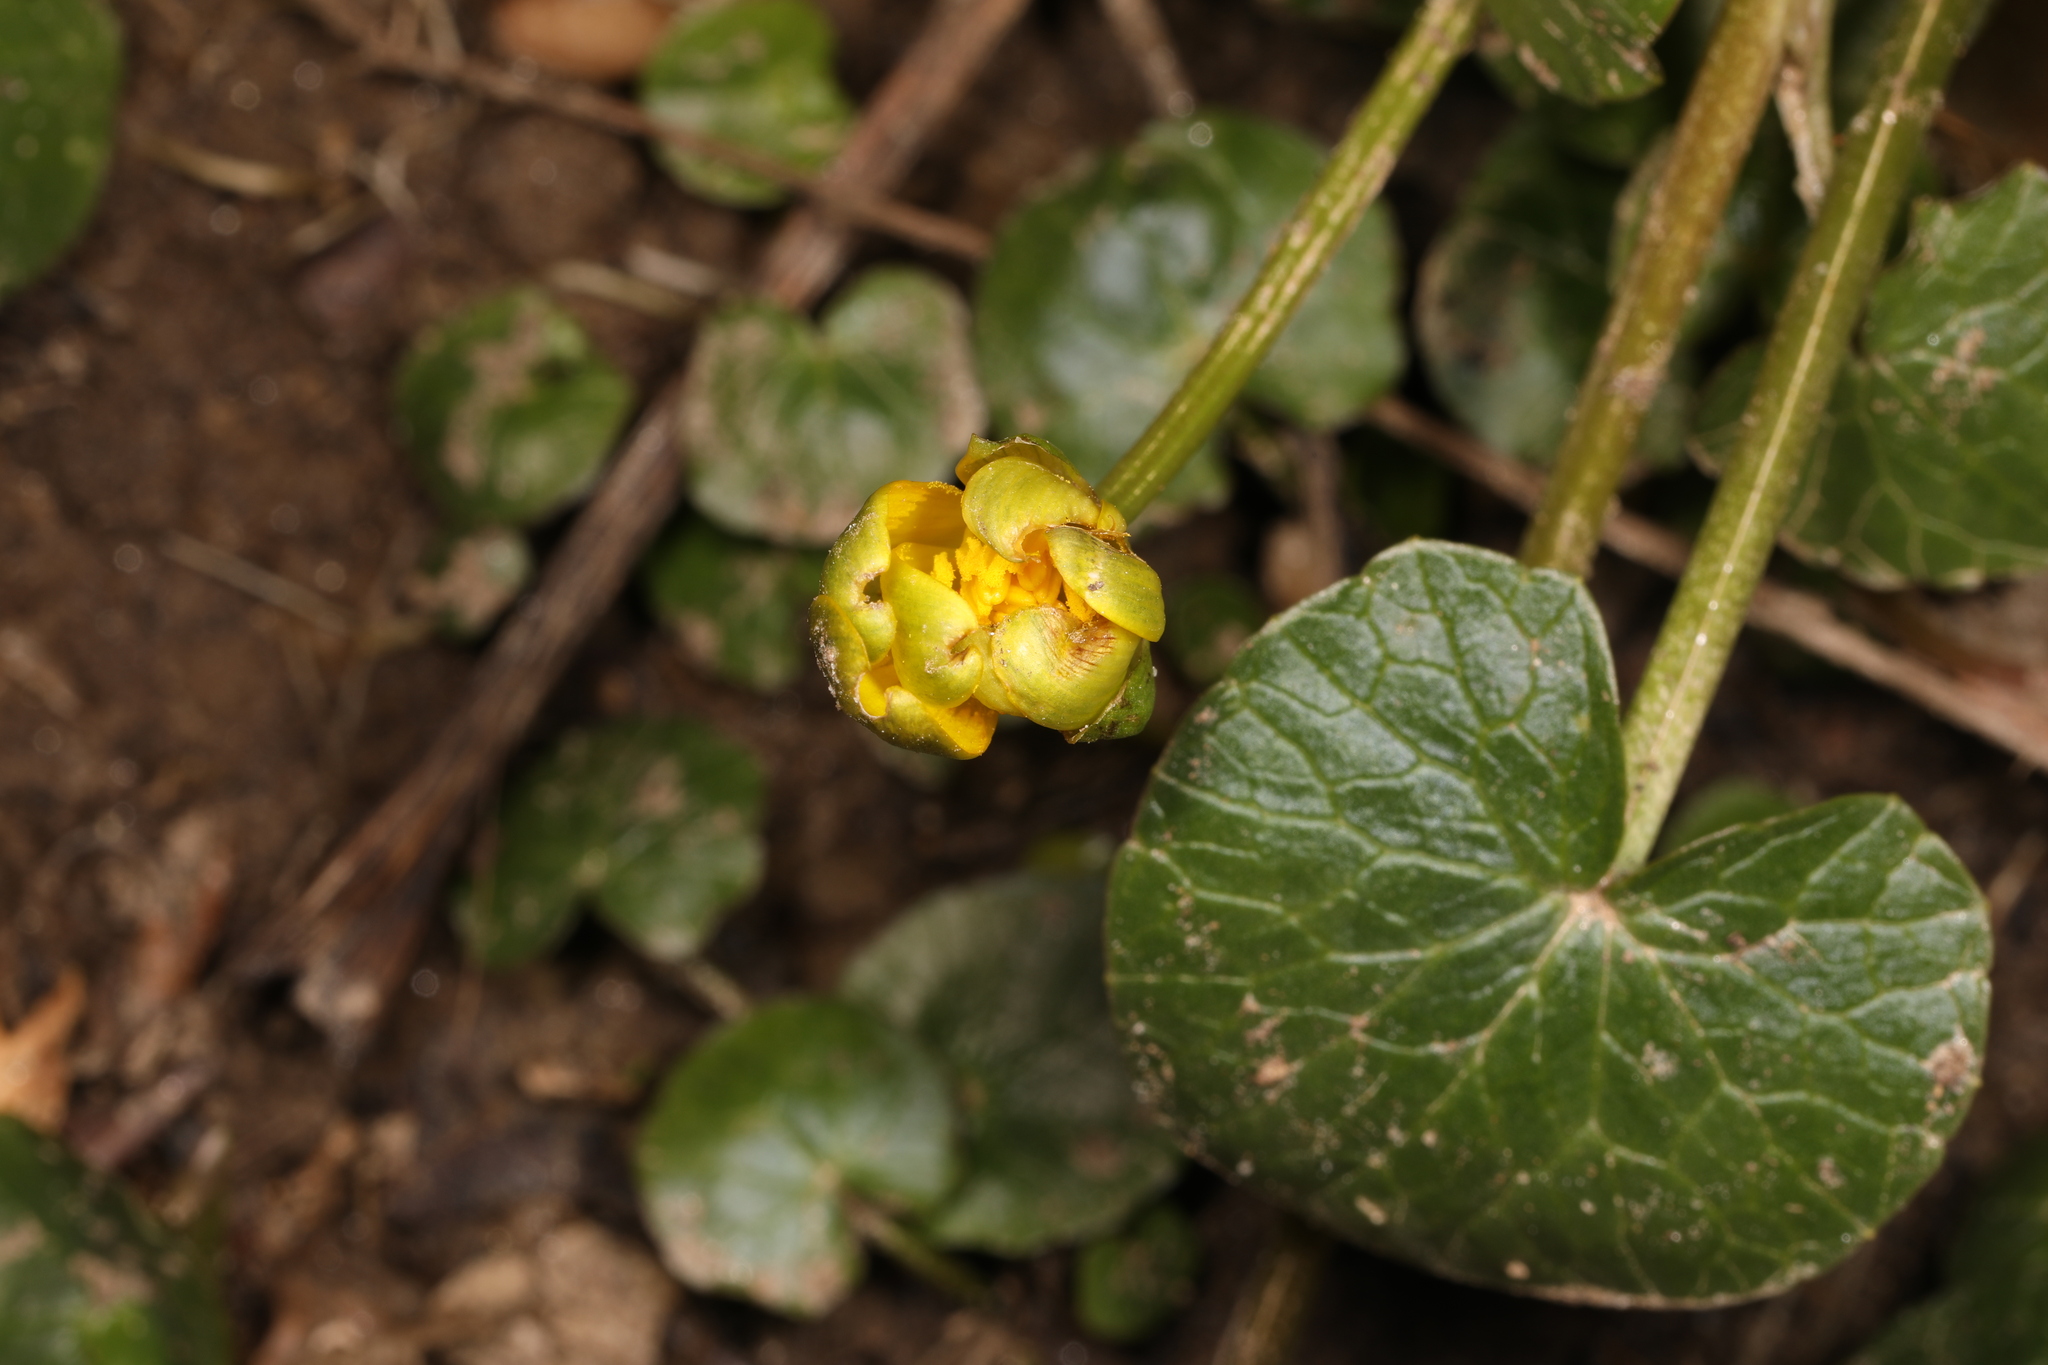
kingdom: Plantae
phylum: Tracheophyta
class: Magnoliopsida
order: Ranunculales
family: Ranunculaceae
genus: Ficaria
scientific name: Ficaria verna
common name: Lesser celandine
